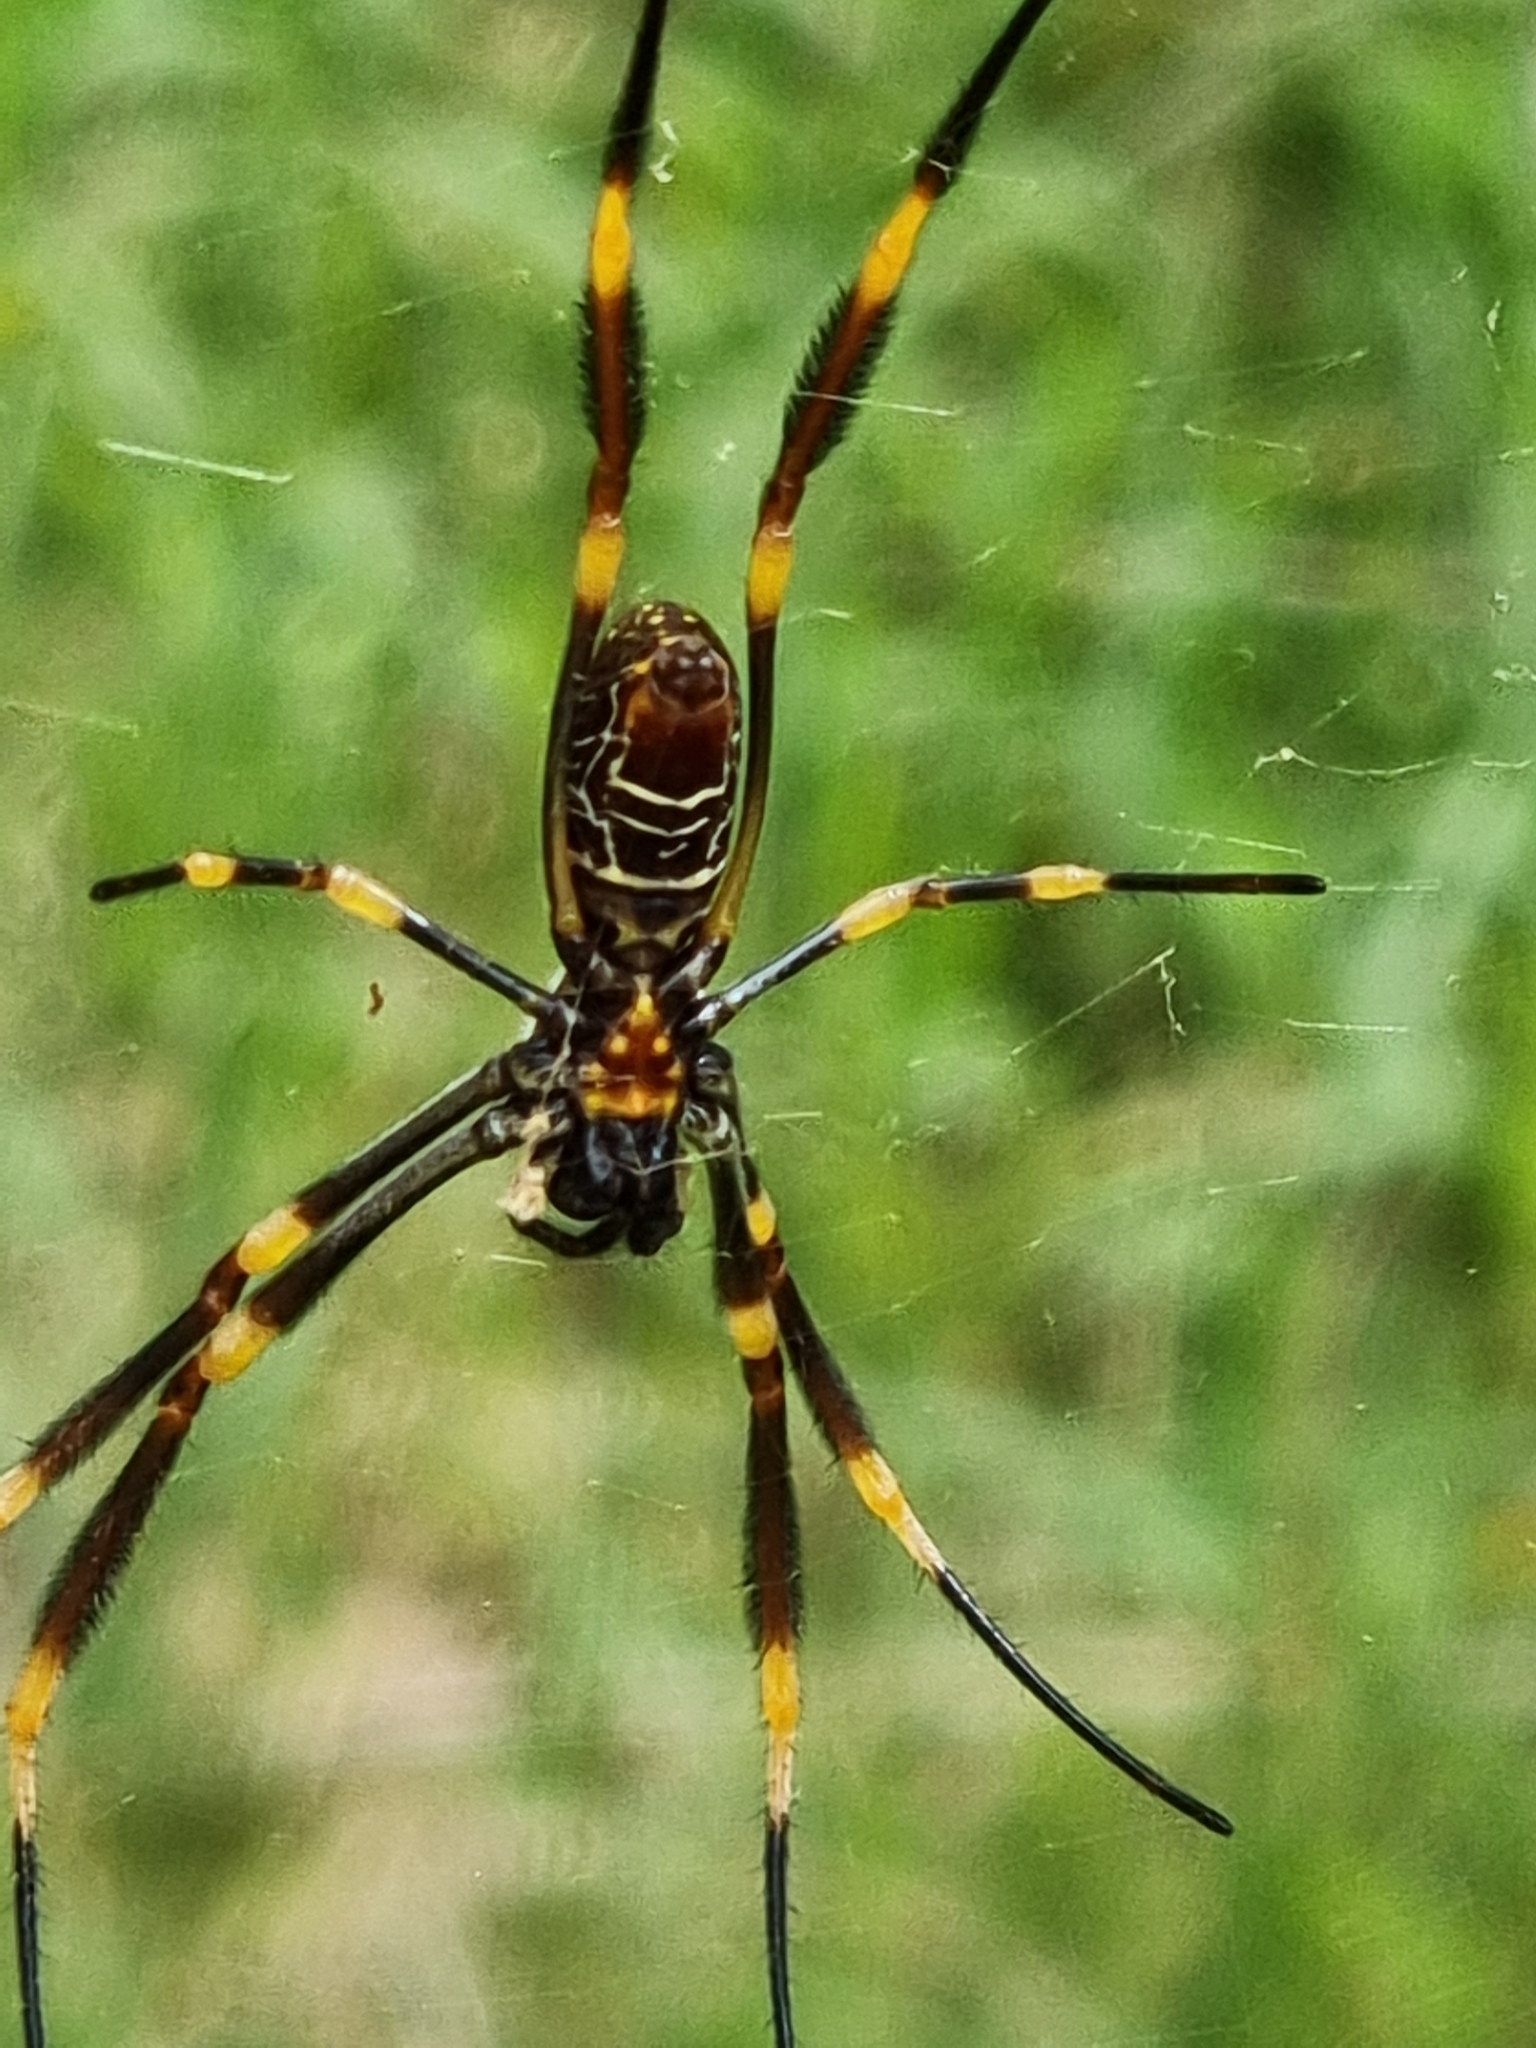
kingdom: Animalia
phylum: Arthropoda
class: Arachnida
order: Araneae
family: Araneidae
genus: Trichonephila
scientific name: Trichonephila plumipes
